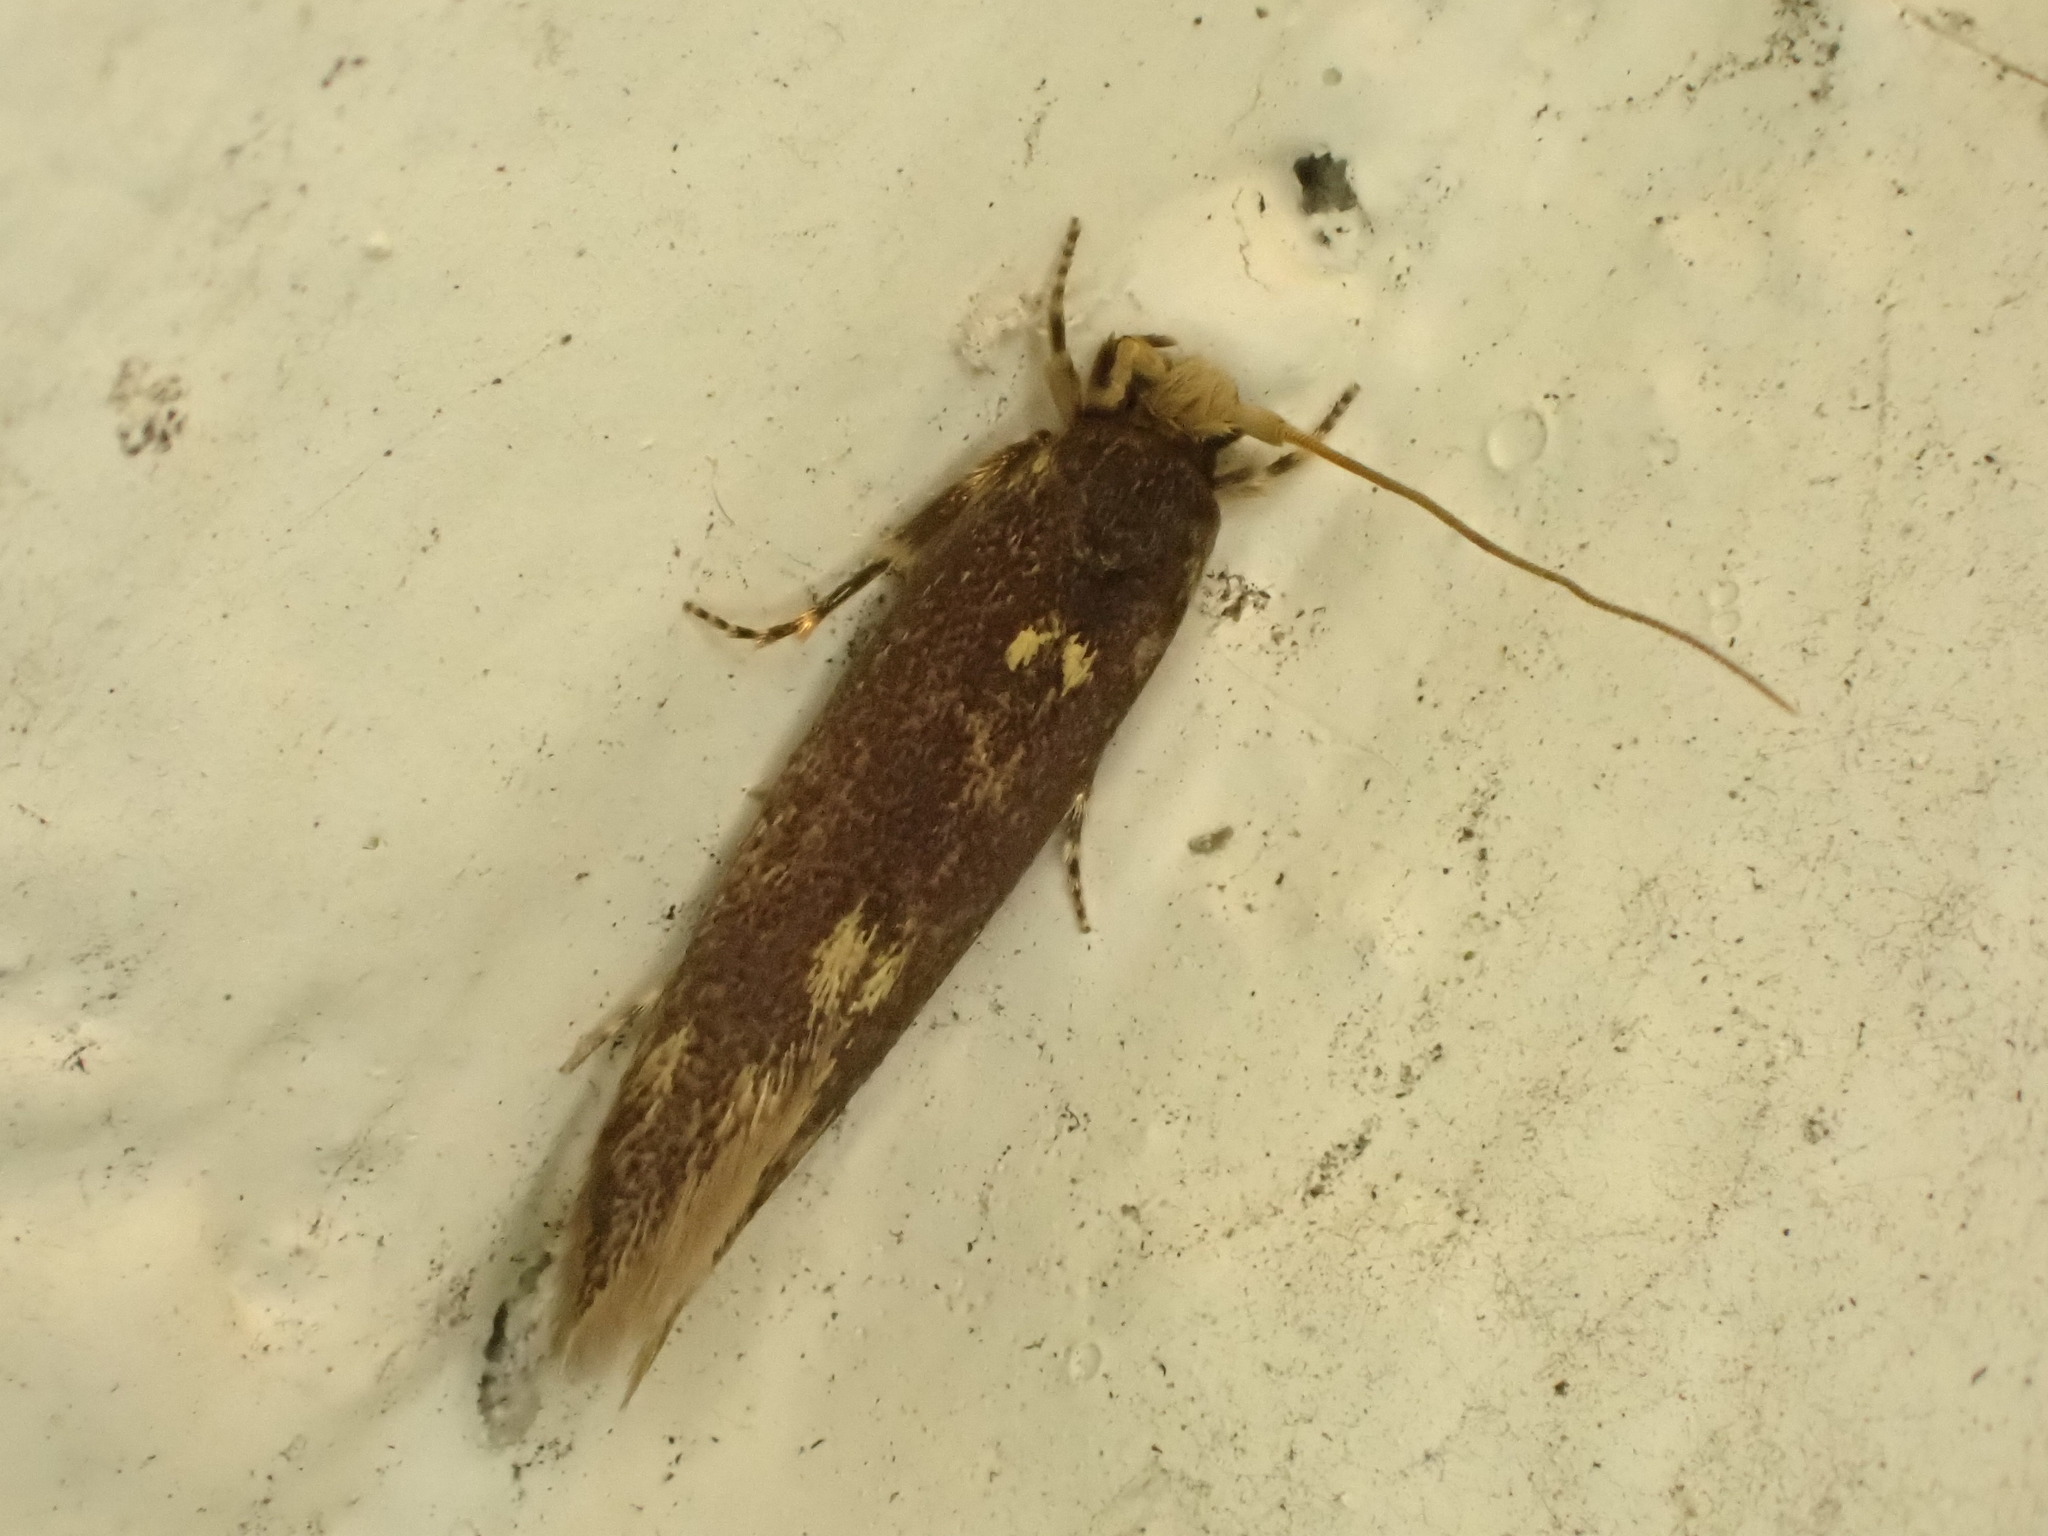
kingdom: Animalia
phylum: Arthropoda
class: Insecta
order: Lepidoptera
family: Tineidae
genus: Opogona
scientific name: Opogona omoscopa
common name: Moth
